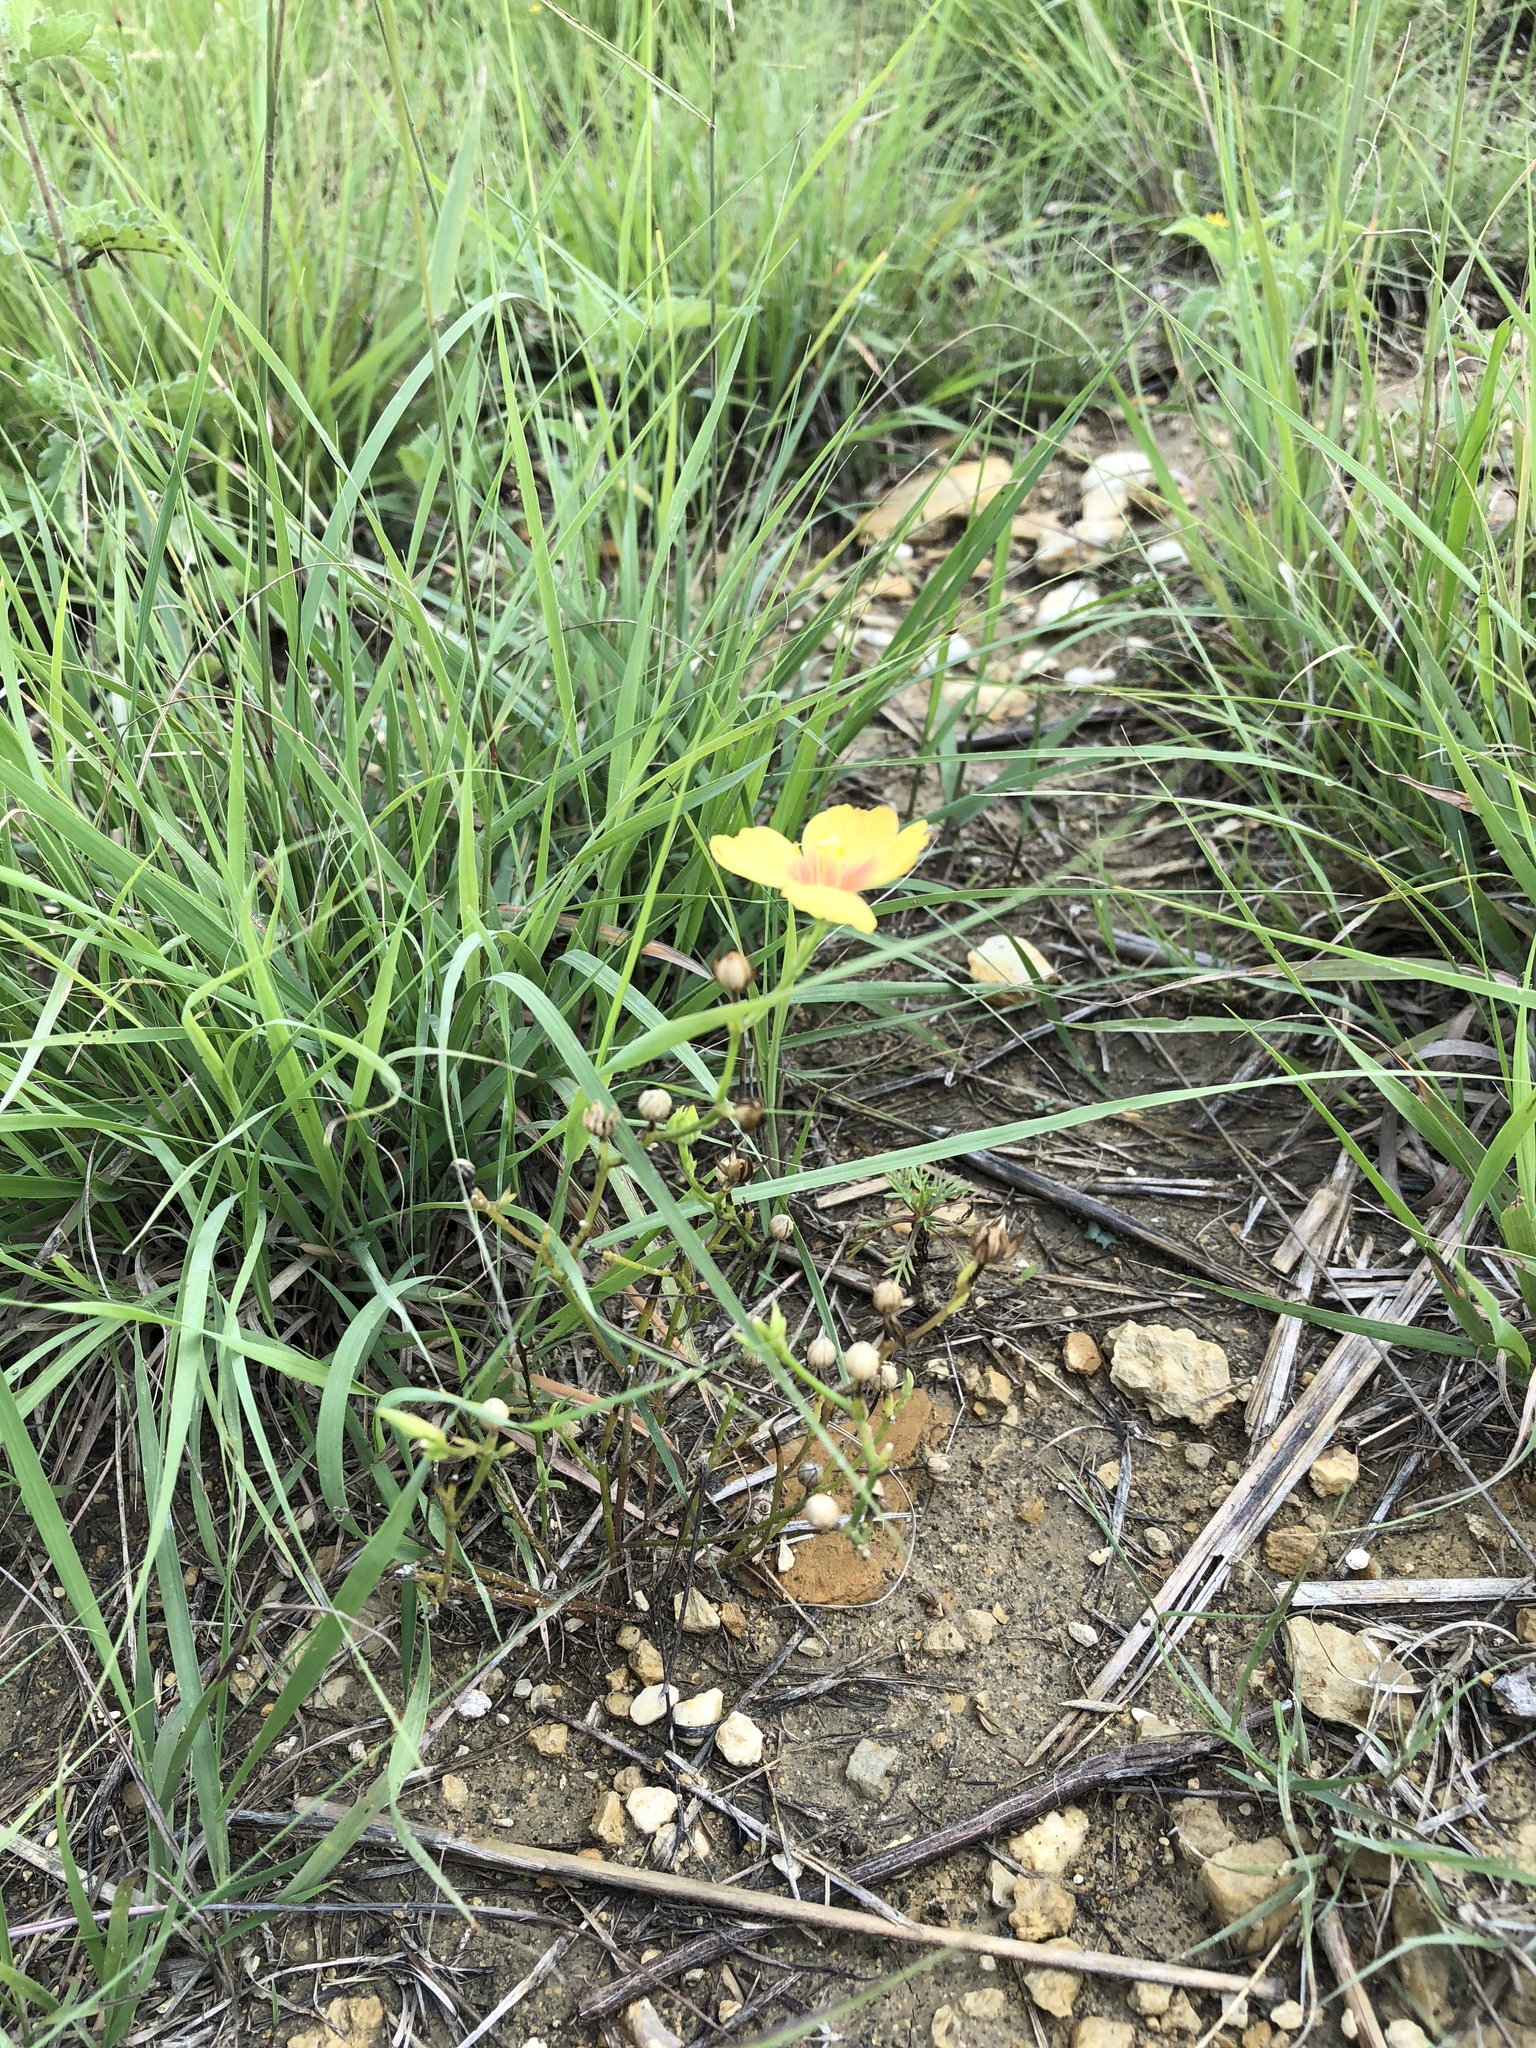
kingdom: Plantae
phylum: Tracheophyta
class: Magnoliopsida
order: Malpighiales
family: Linaceae
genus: Linum
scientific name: Linum rigidum
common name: Stiff-stem flax
